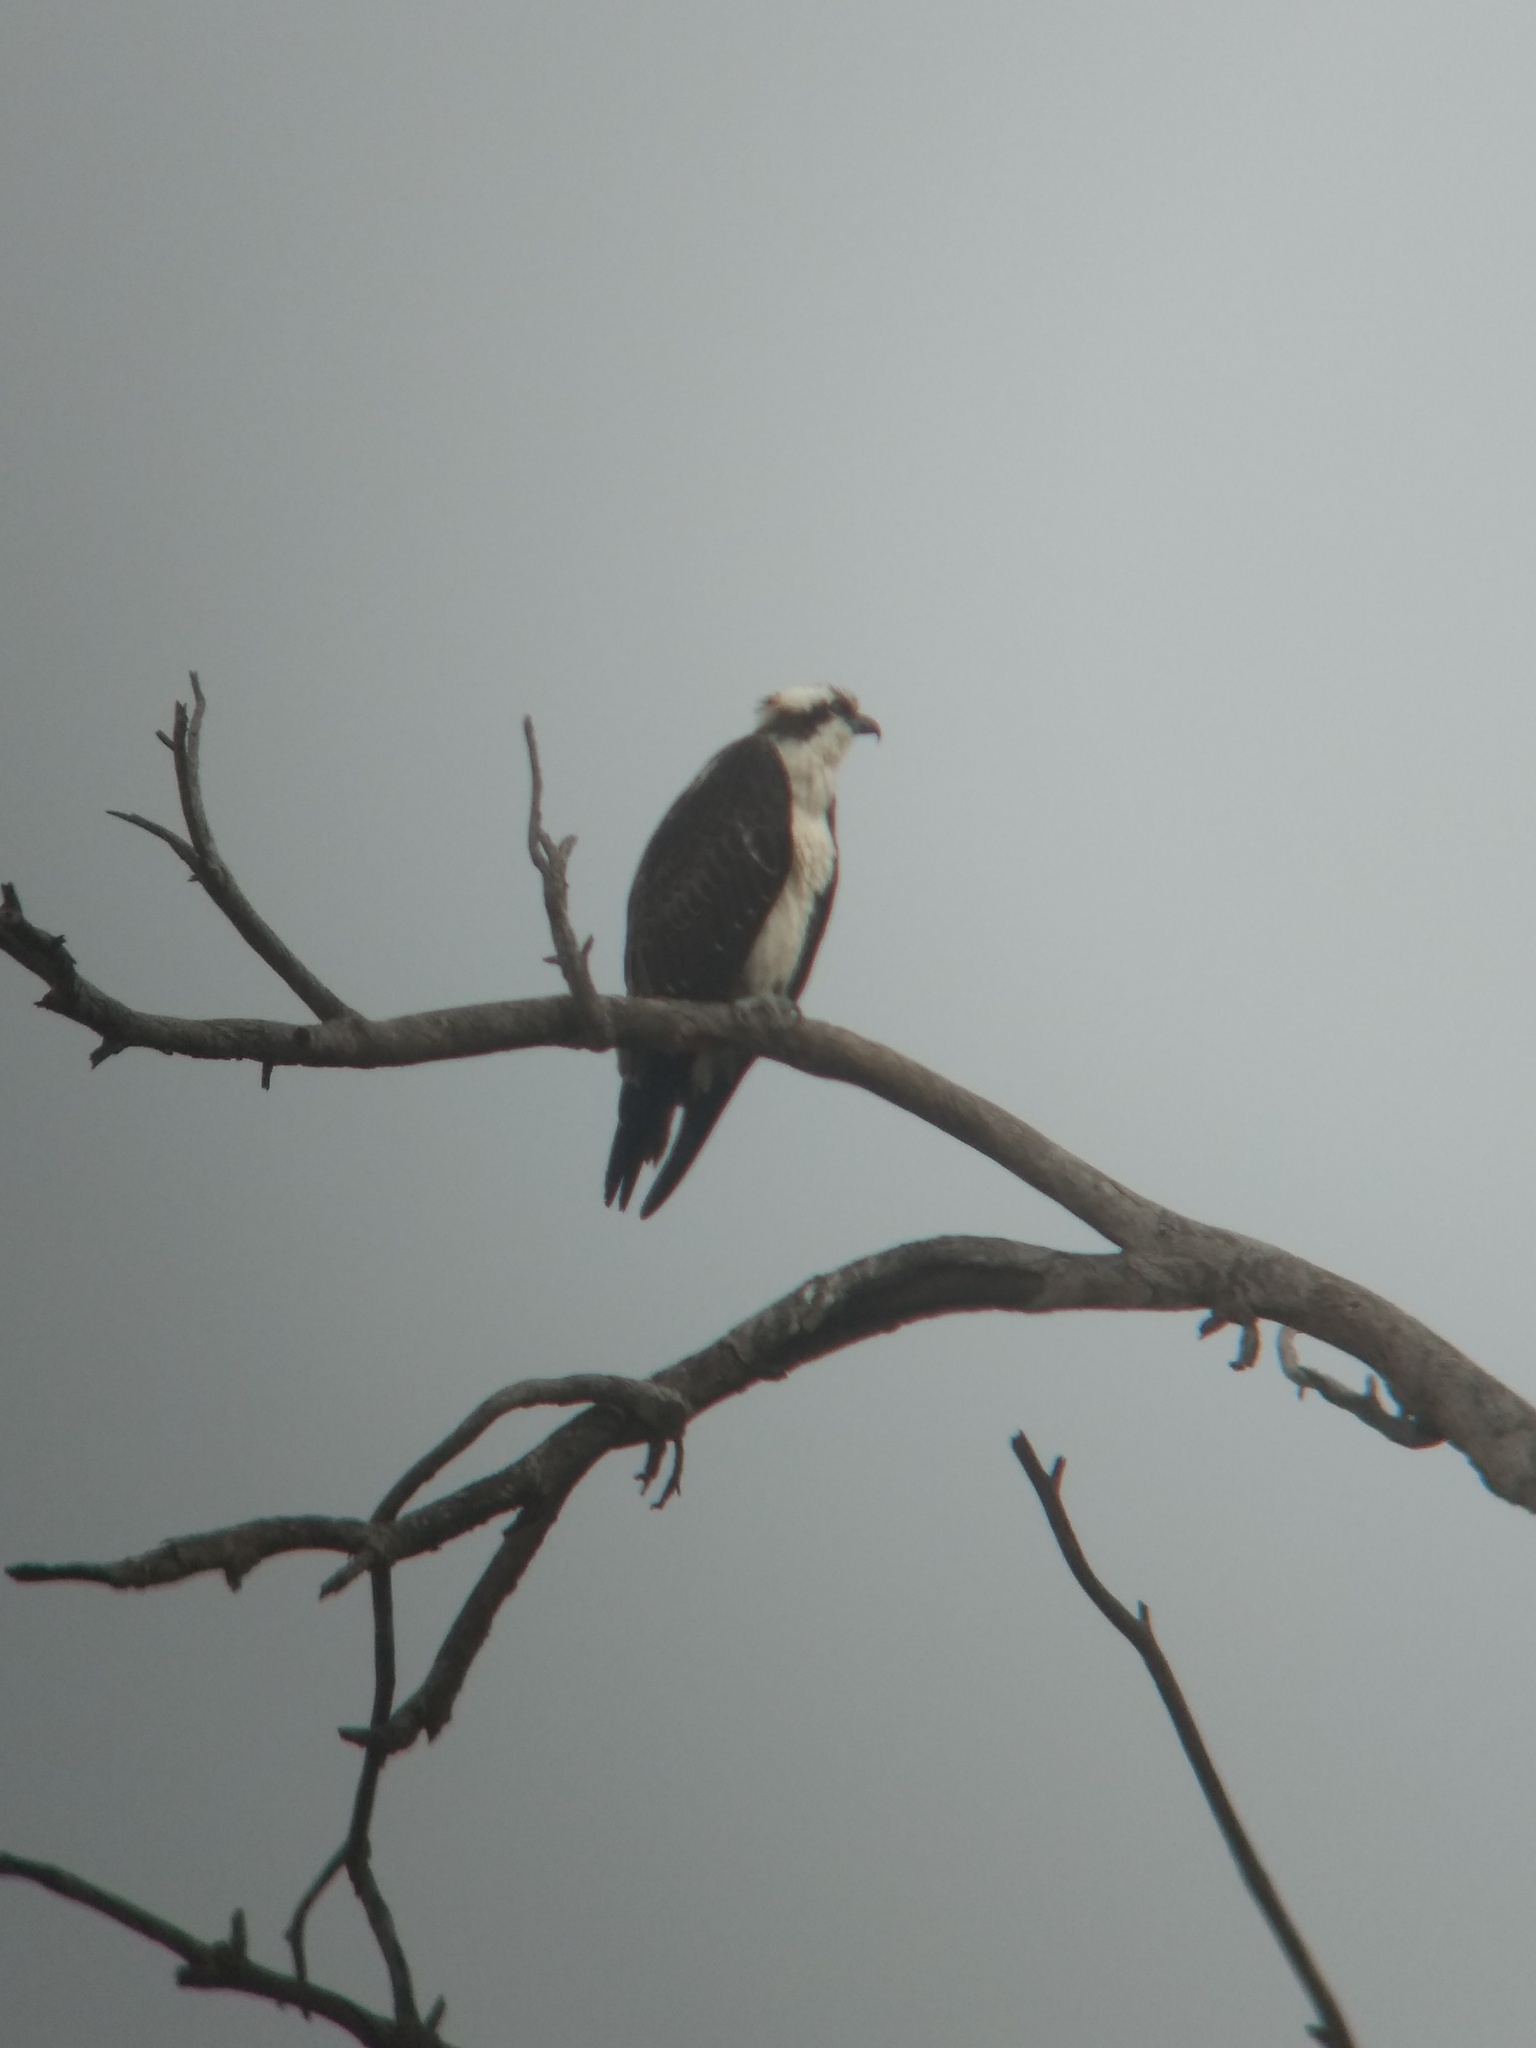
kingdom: Animalia
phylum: Chordata
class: Aves
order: Accipitriformes
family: Pandionidae
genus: Pandion
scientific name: Pandion haliaetus
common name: Osprey
